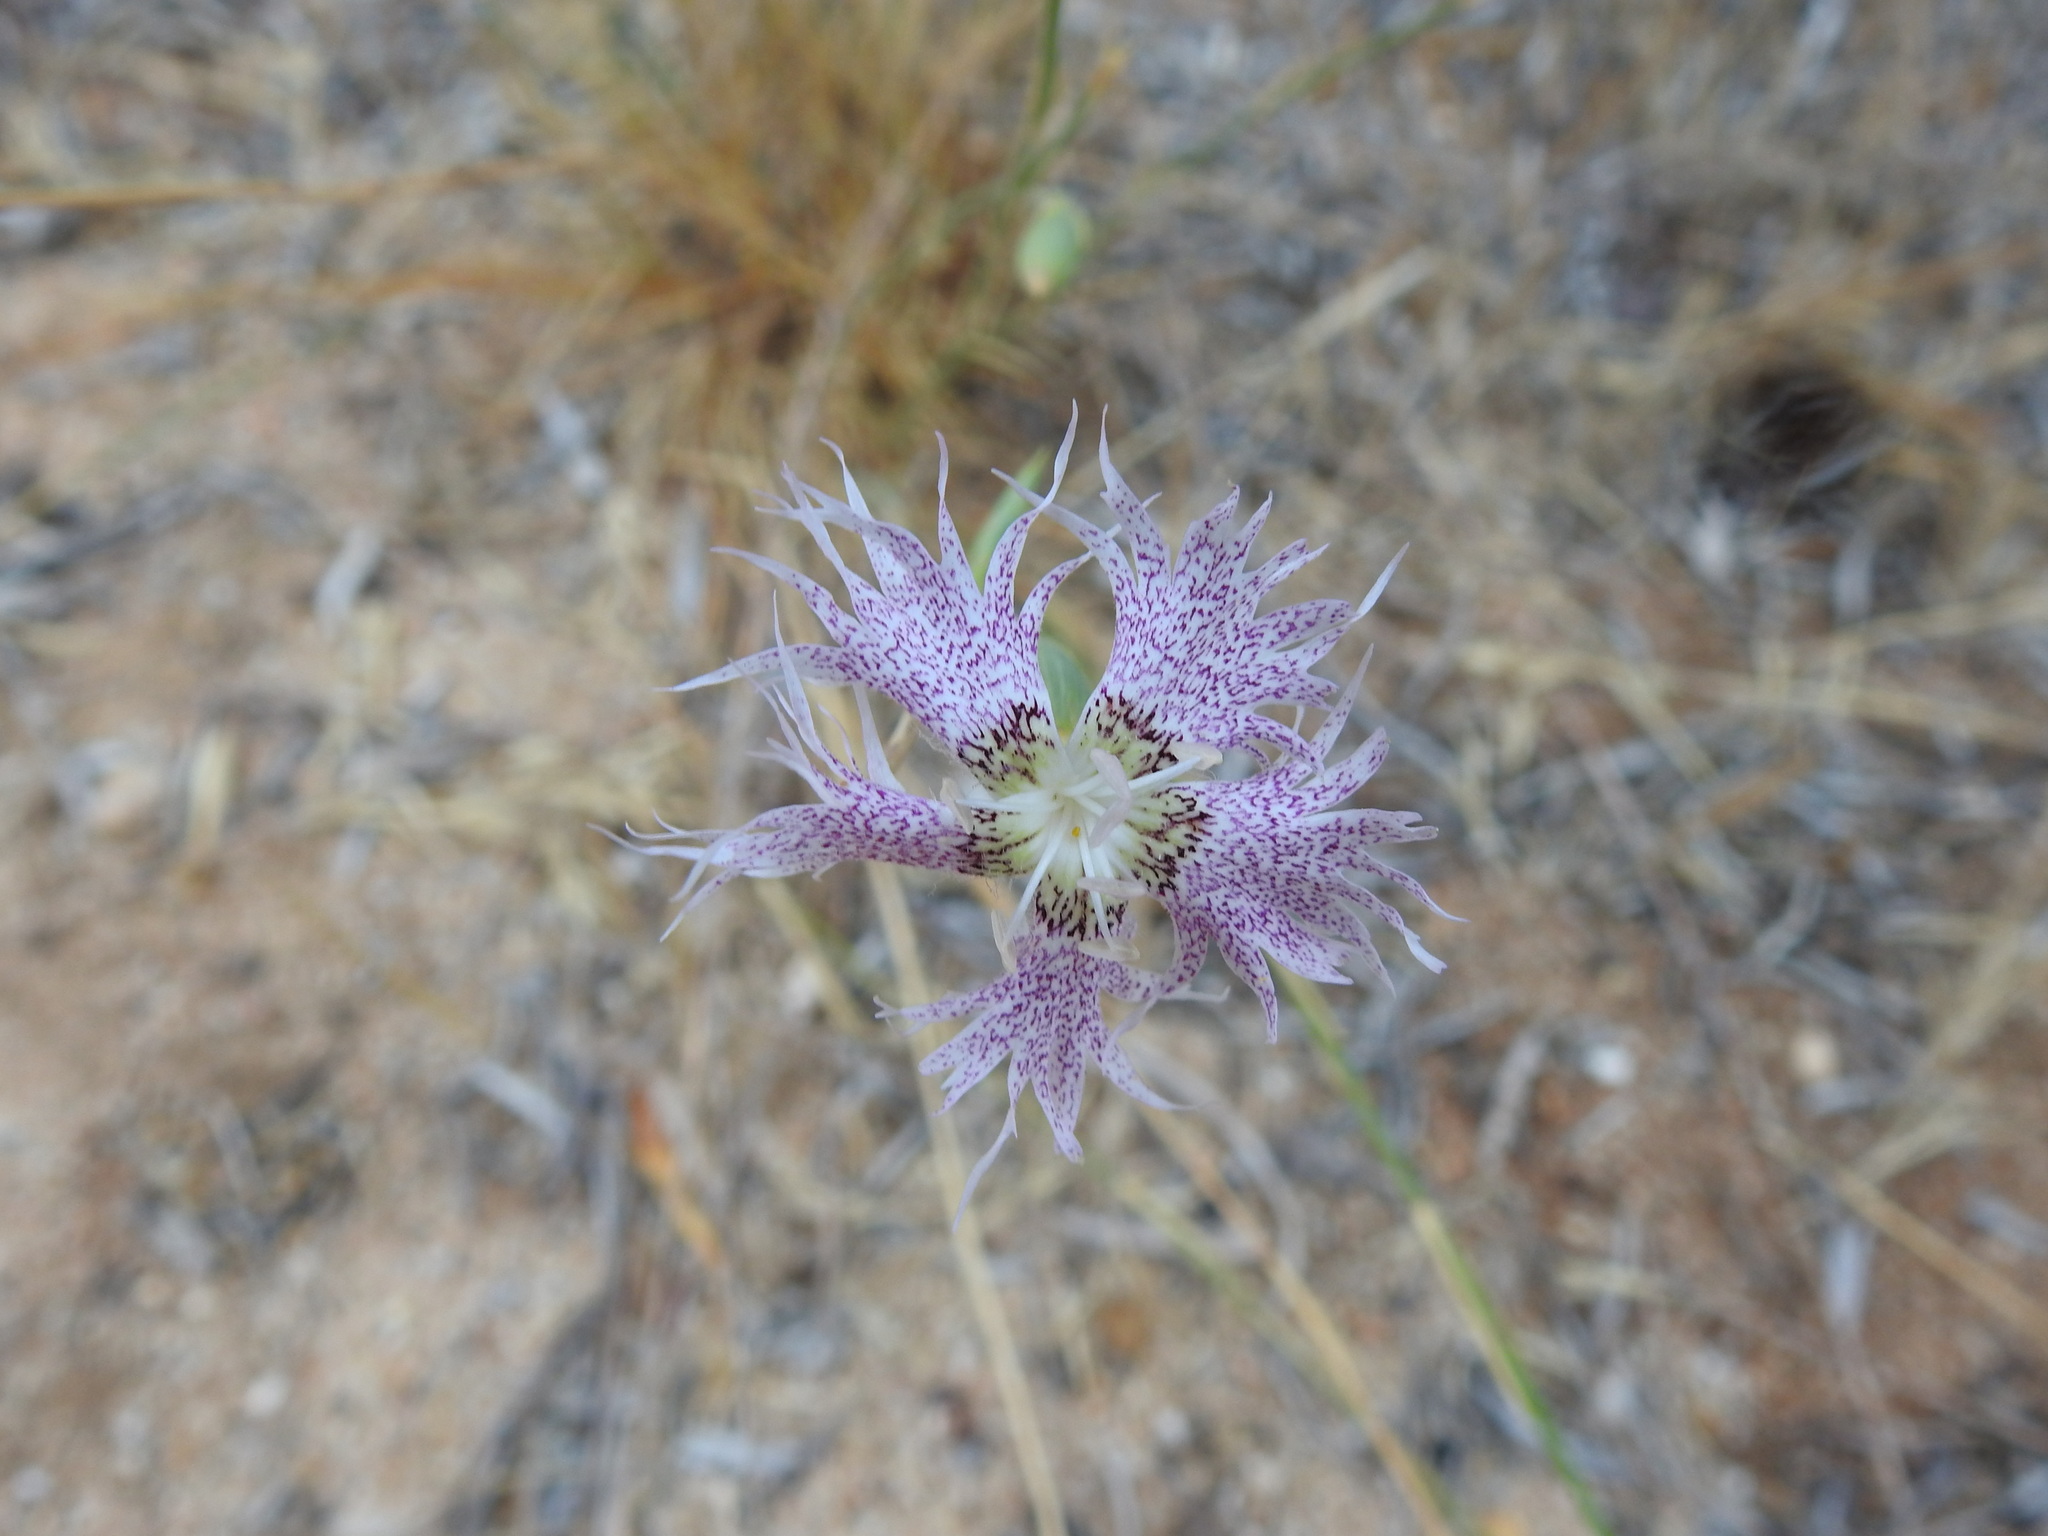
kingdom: Plantae
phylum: Tracheophyta
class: Magnoliopsida
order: Caryophyllales
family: Caryophyllaceae
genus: Dianthus
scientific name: Dianthus broteri
